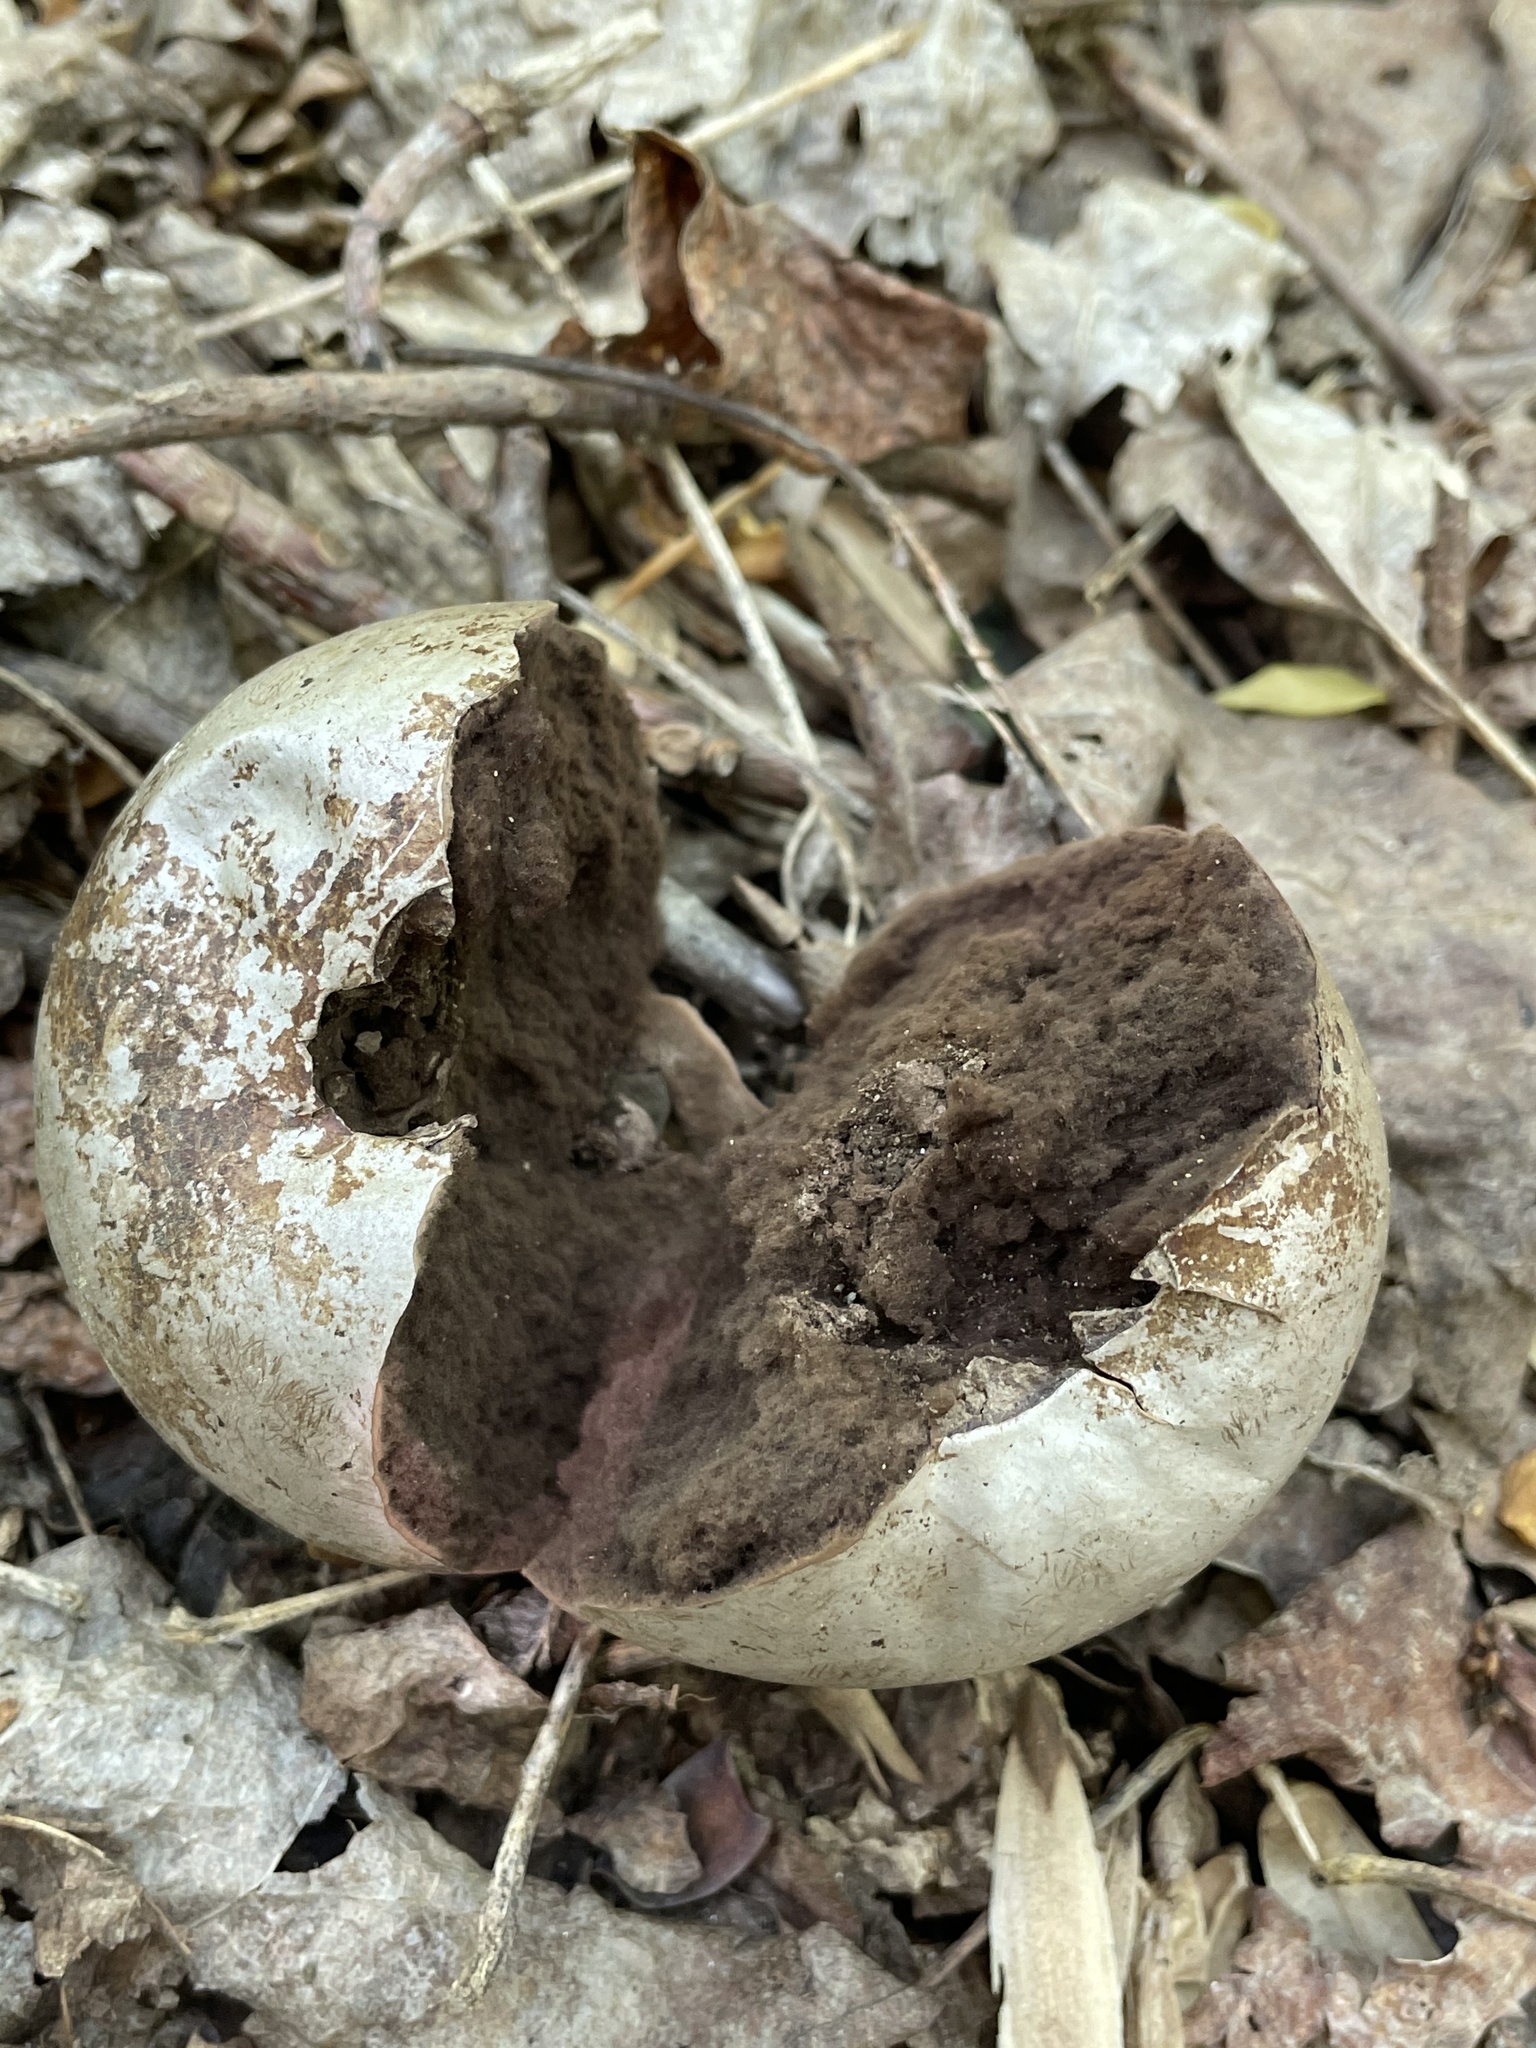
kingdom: Fungi
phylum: Basidiomycota
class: Agaricomycetes
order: Agaricales
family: Lycoperdaceae
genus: Calvatia
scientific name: Calvatia gigantea
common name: Giant puffball
